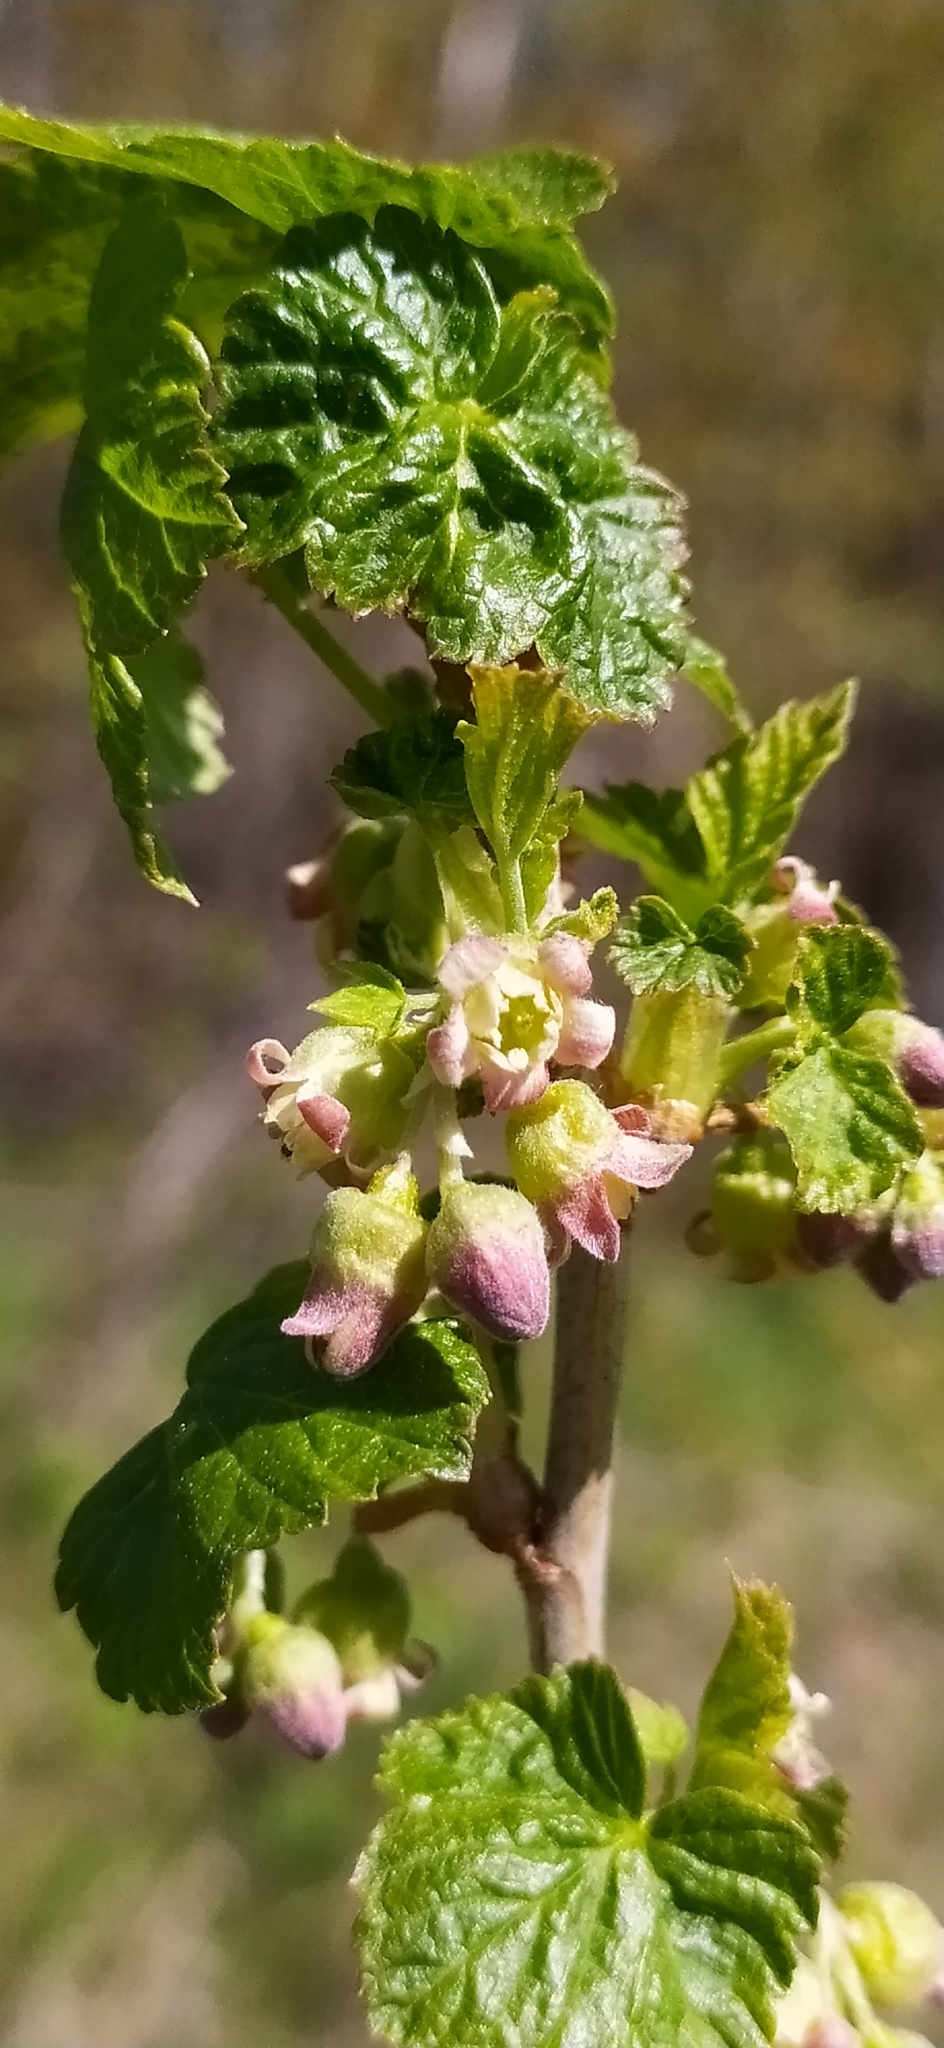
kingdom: Plantae
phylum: Tracheophyta
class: Magnoliopsida
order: Saxifragales
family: Grossulariaceae
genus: Ribes
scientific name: Ribes nigrum
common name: Black currant
